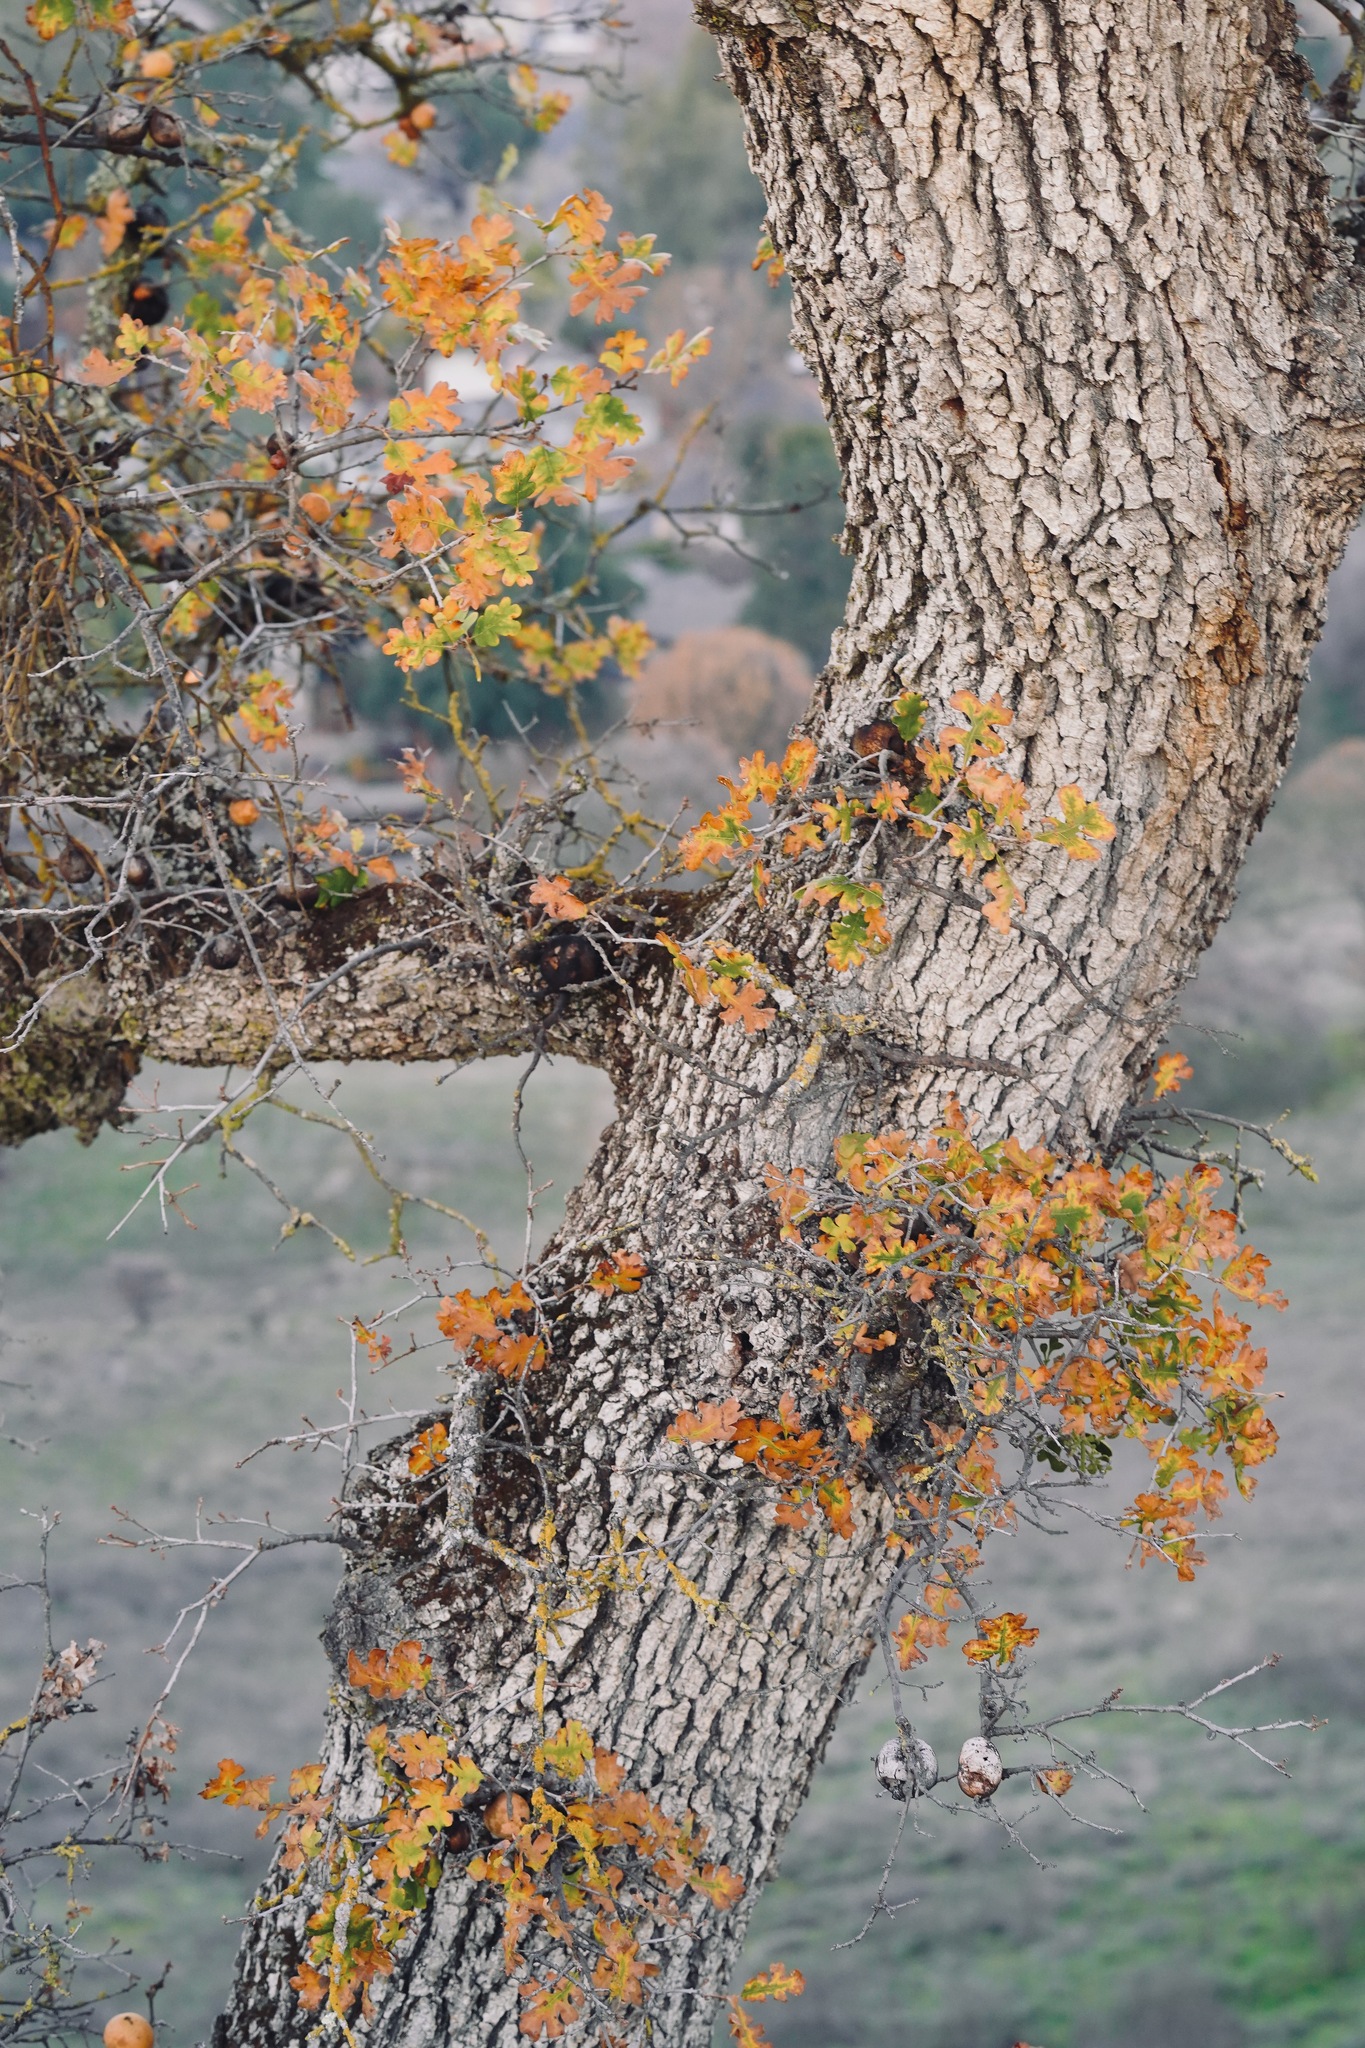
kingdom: Plantae
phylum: Tracheophyta
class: Magnoliopsida
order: Fagales
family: Fagaceae
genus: Quercus
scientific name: Quercus garryana
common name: Garry oak
